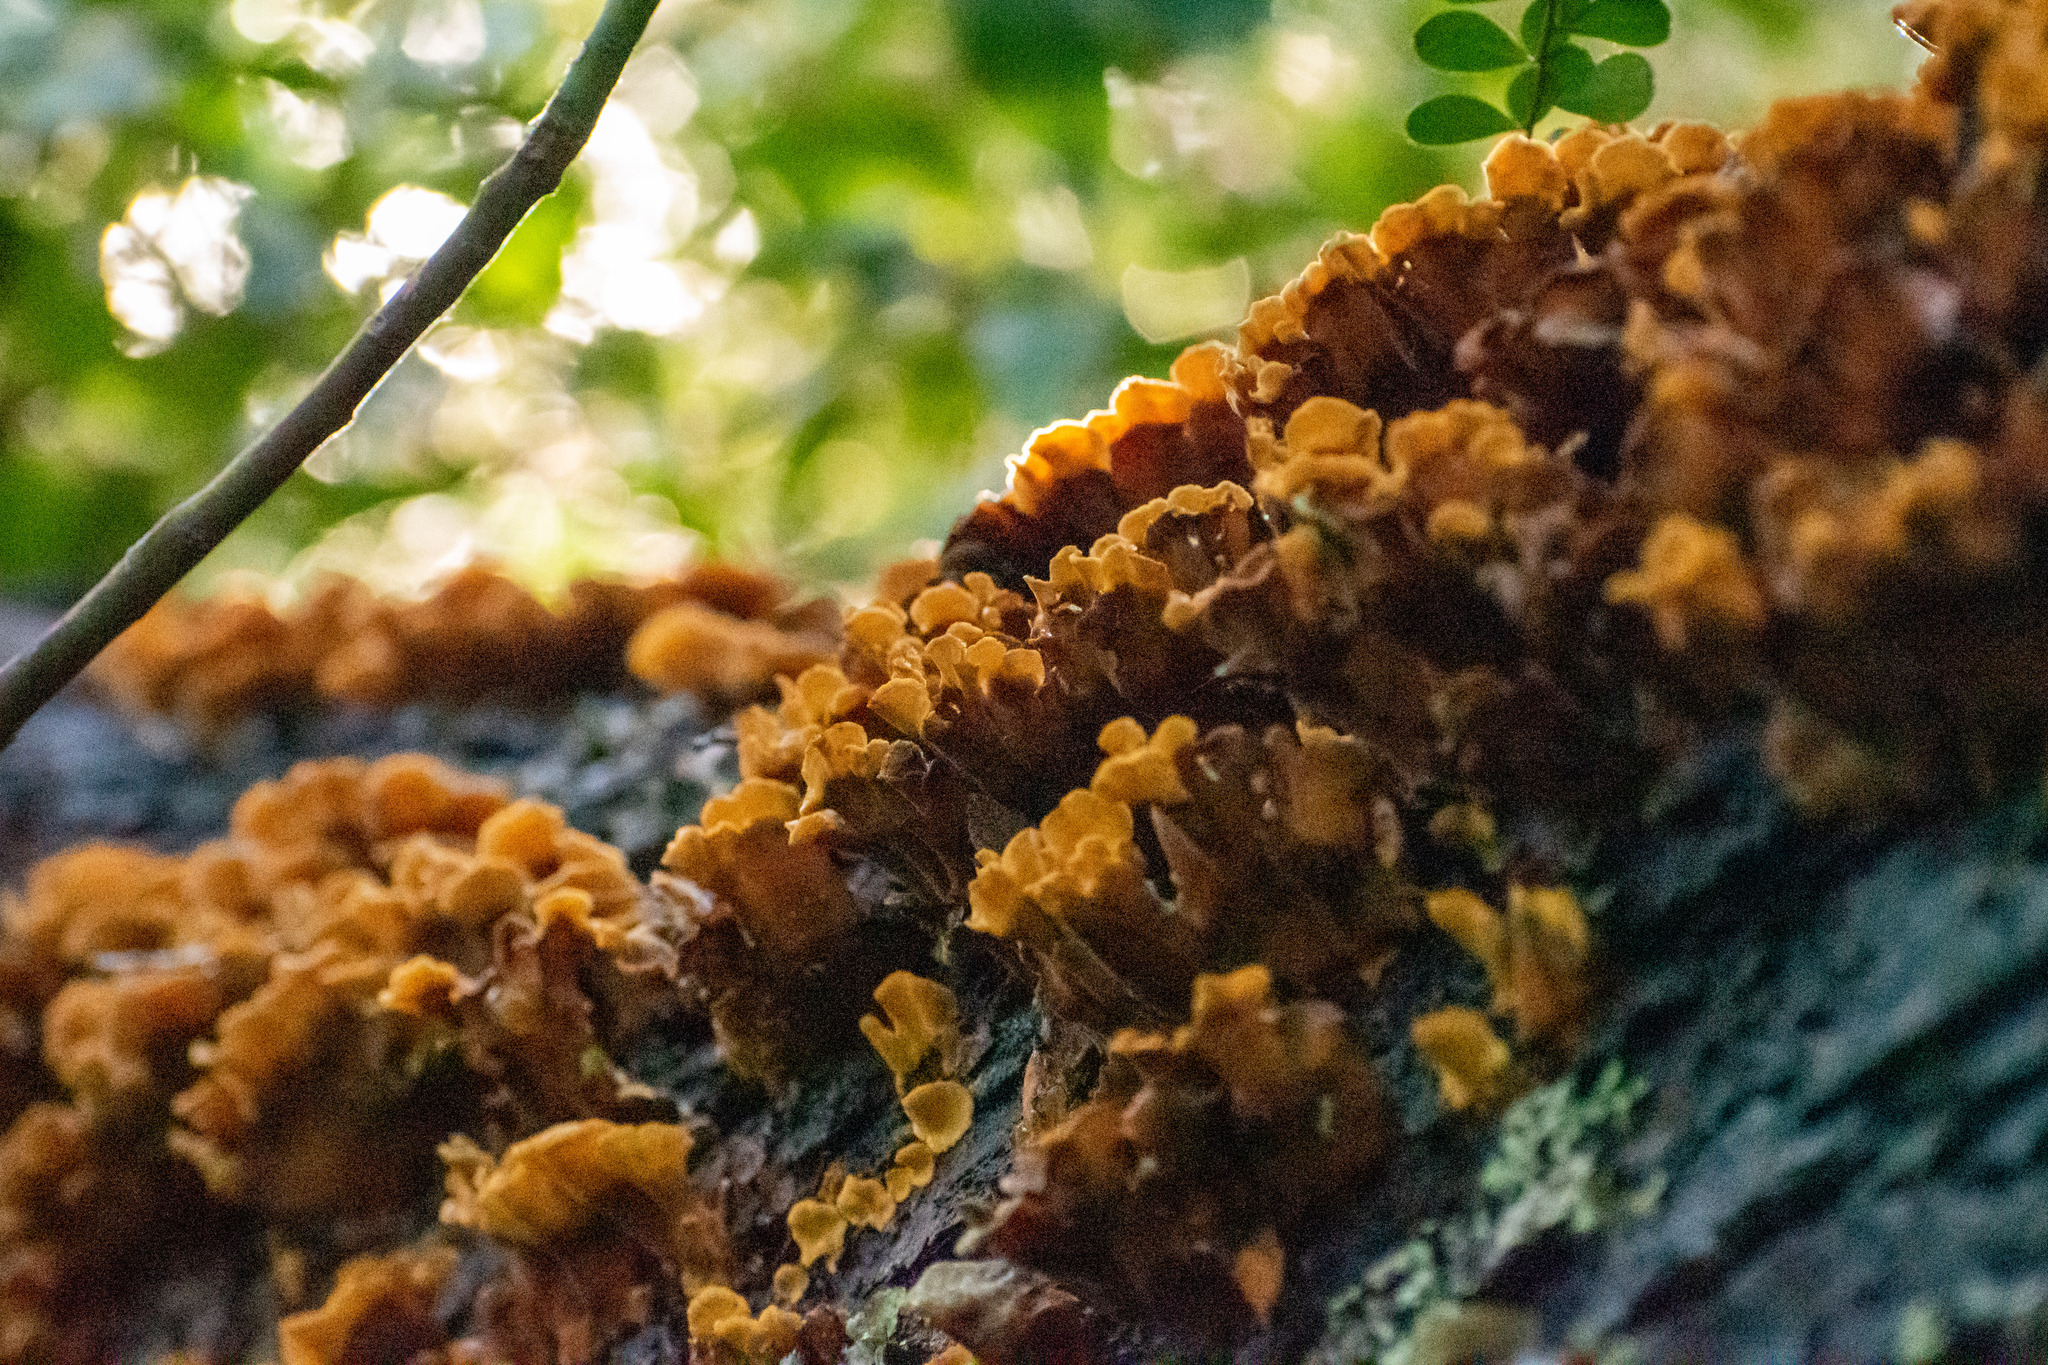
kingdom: Fungi
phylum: Basidiomycota
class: Agaricomycetes
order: Russulales
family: Stereaceae
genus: Stereum
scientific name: Stereum hirsutum
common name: Hairy curtain crust
